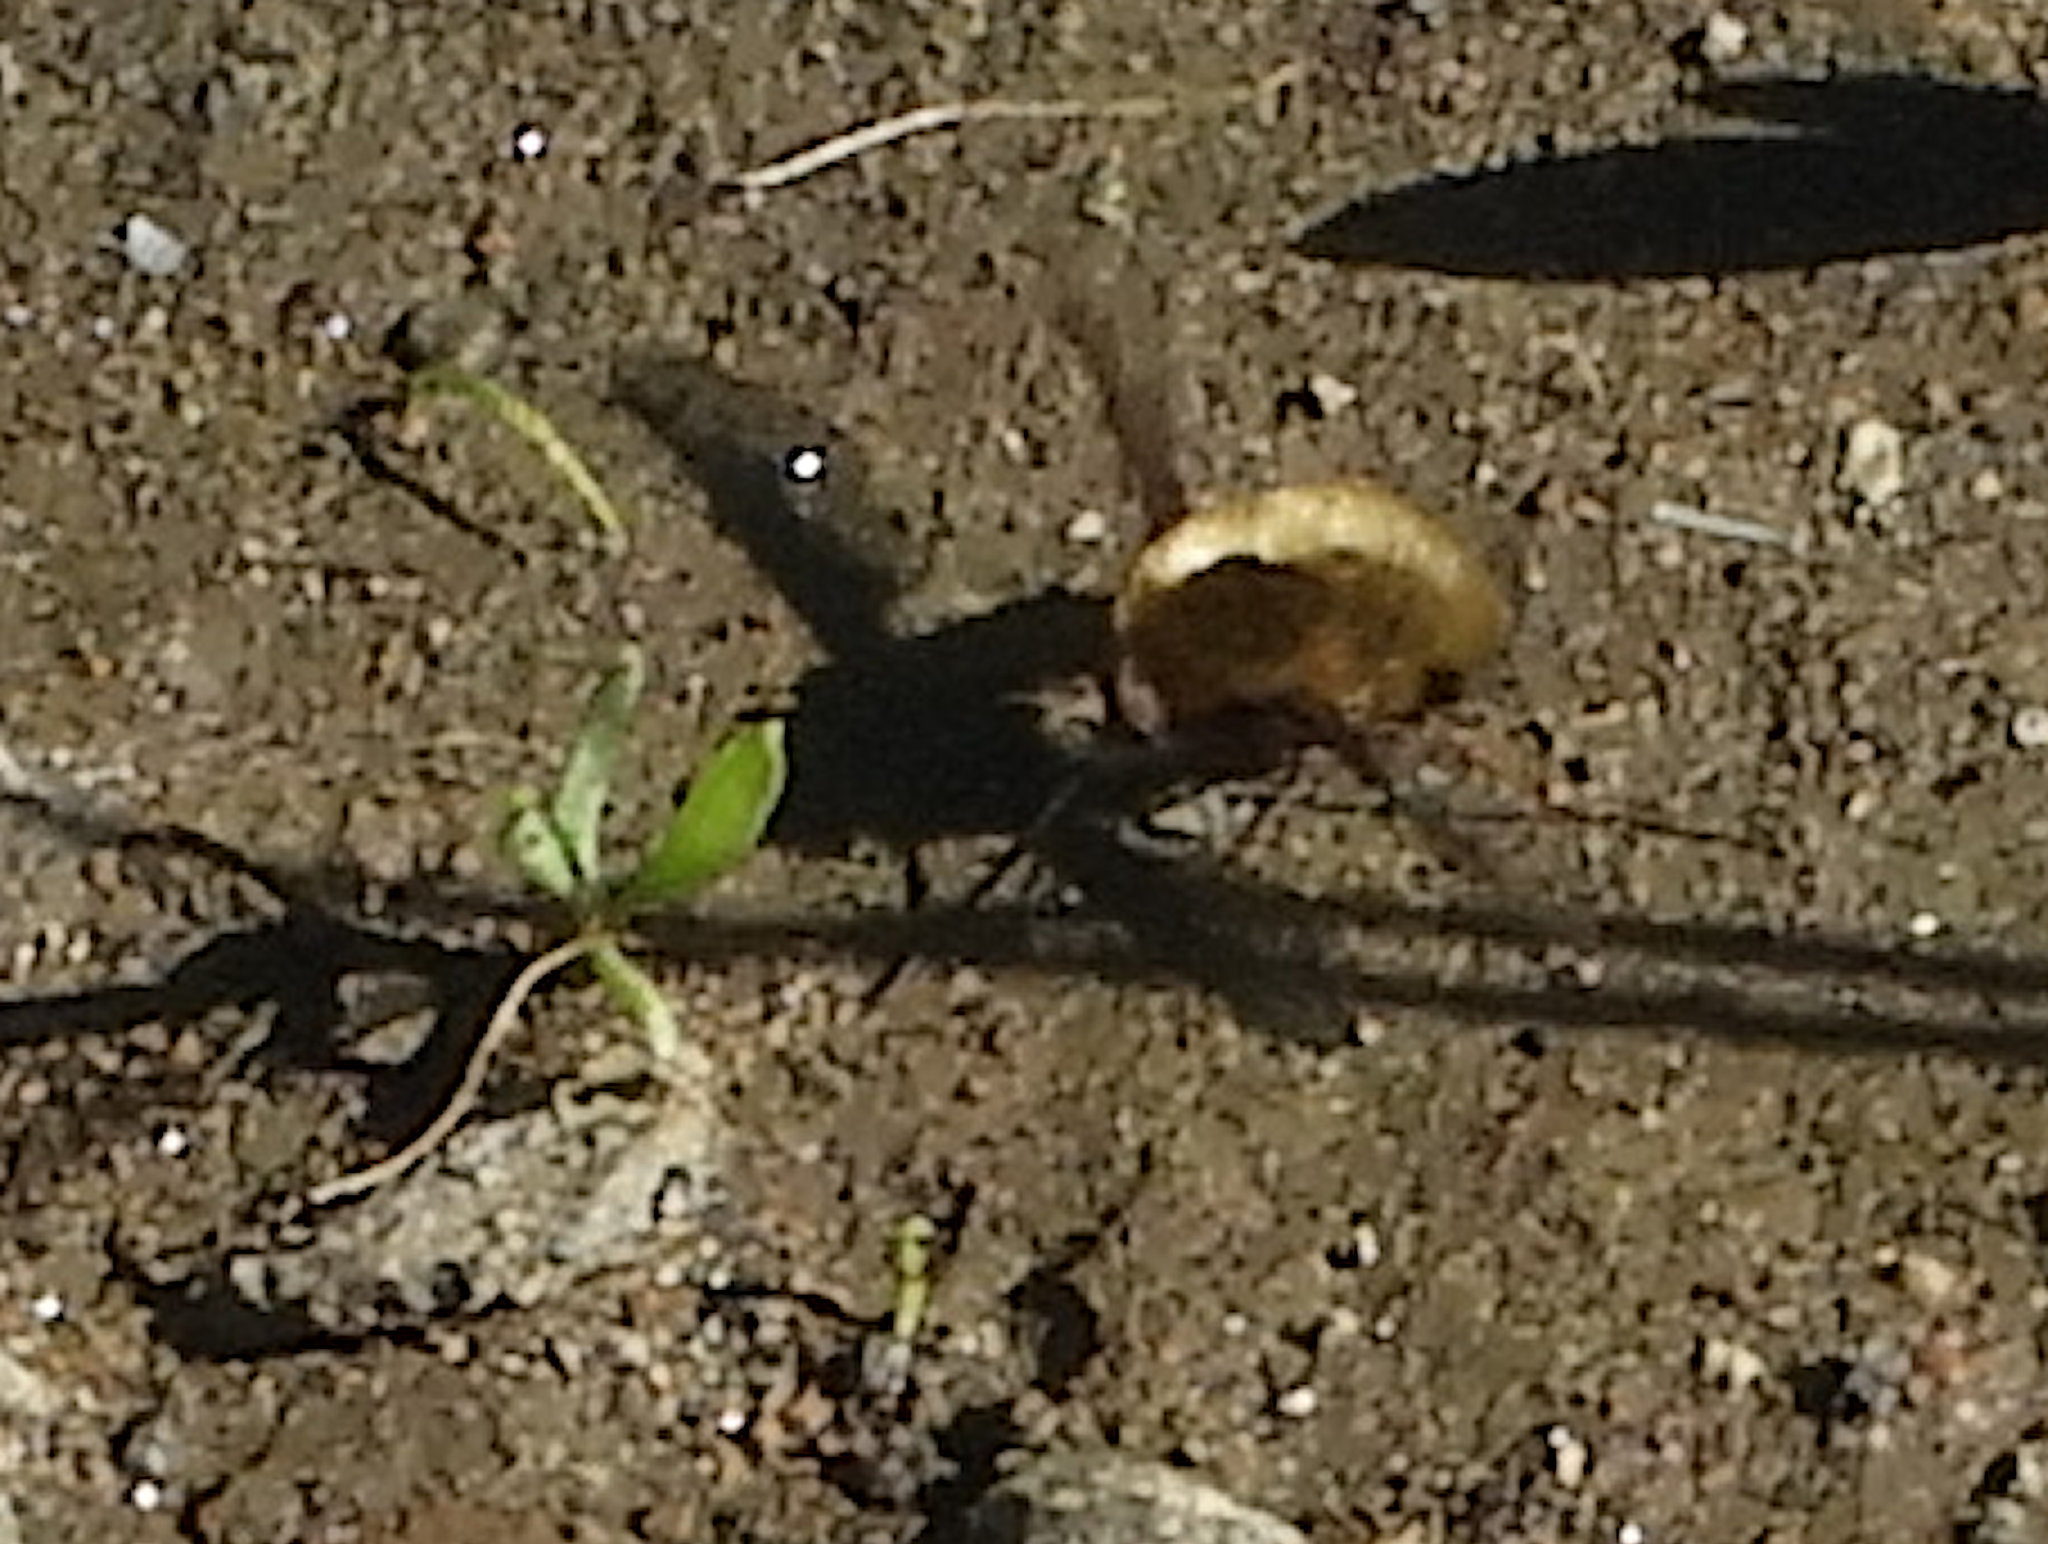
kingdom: Animalia
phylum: Arthropoda
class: Insecta
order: Diptera
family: Bombyliidae
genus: Bombylius
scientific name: Bombylius major
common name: Bee fly
